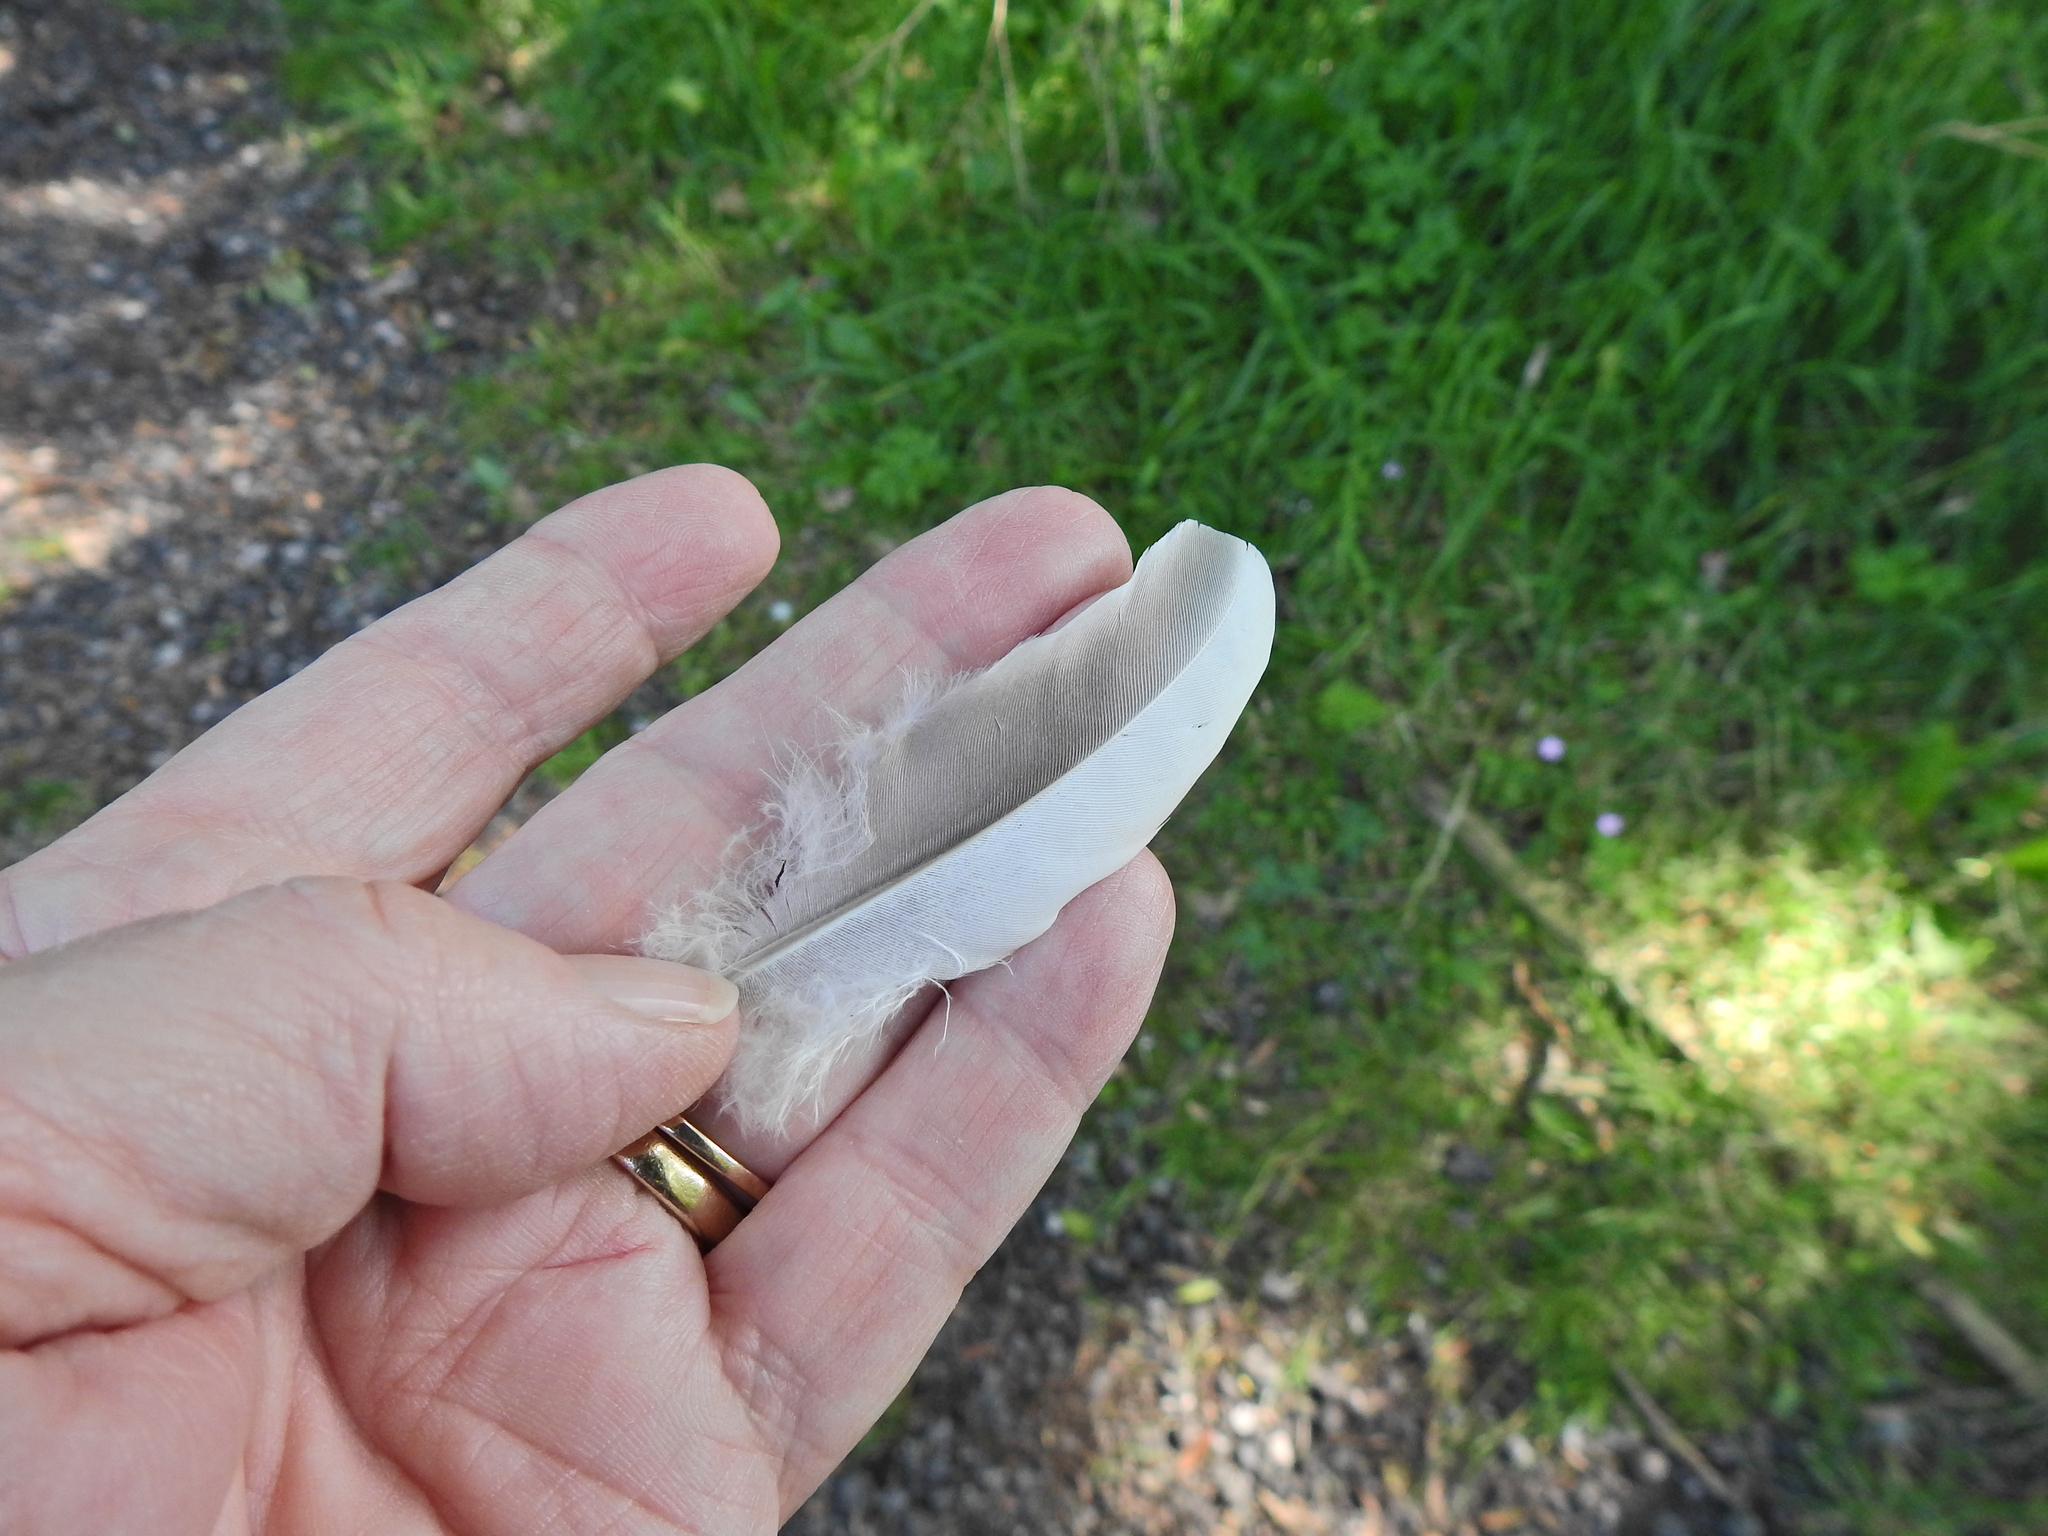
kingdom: Animalia
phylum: Chordata
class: Aves
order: Columbiformes
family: Columbidae
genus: Columba
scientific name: Columba palumbus
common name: Common wood pigeon
